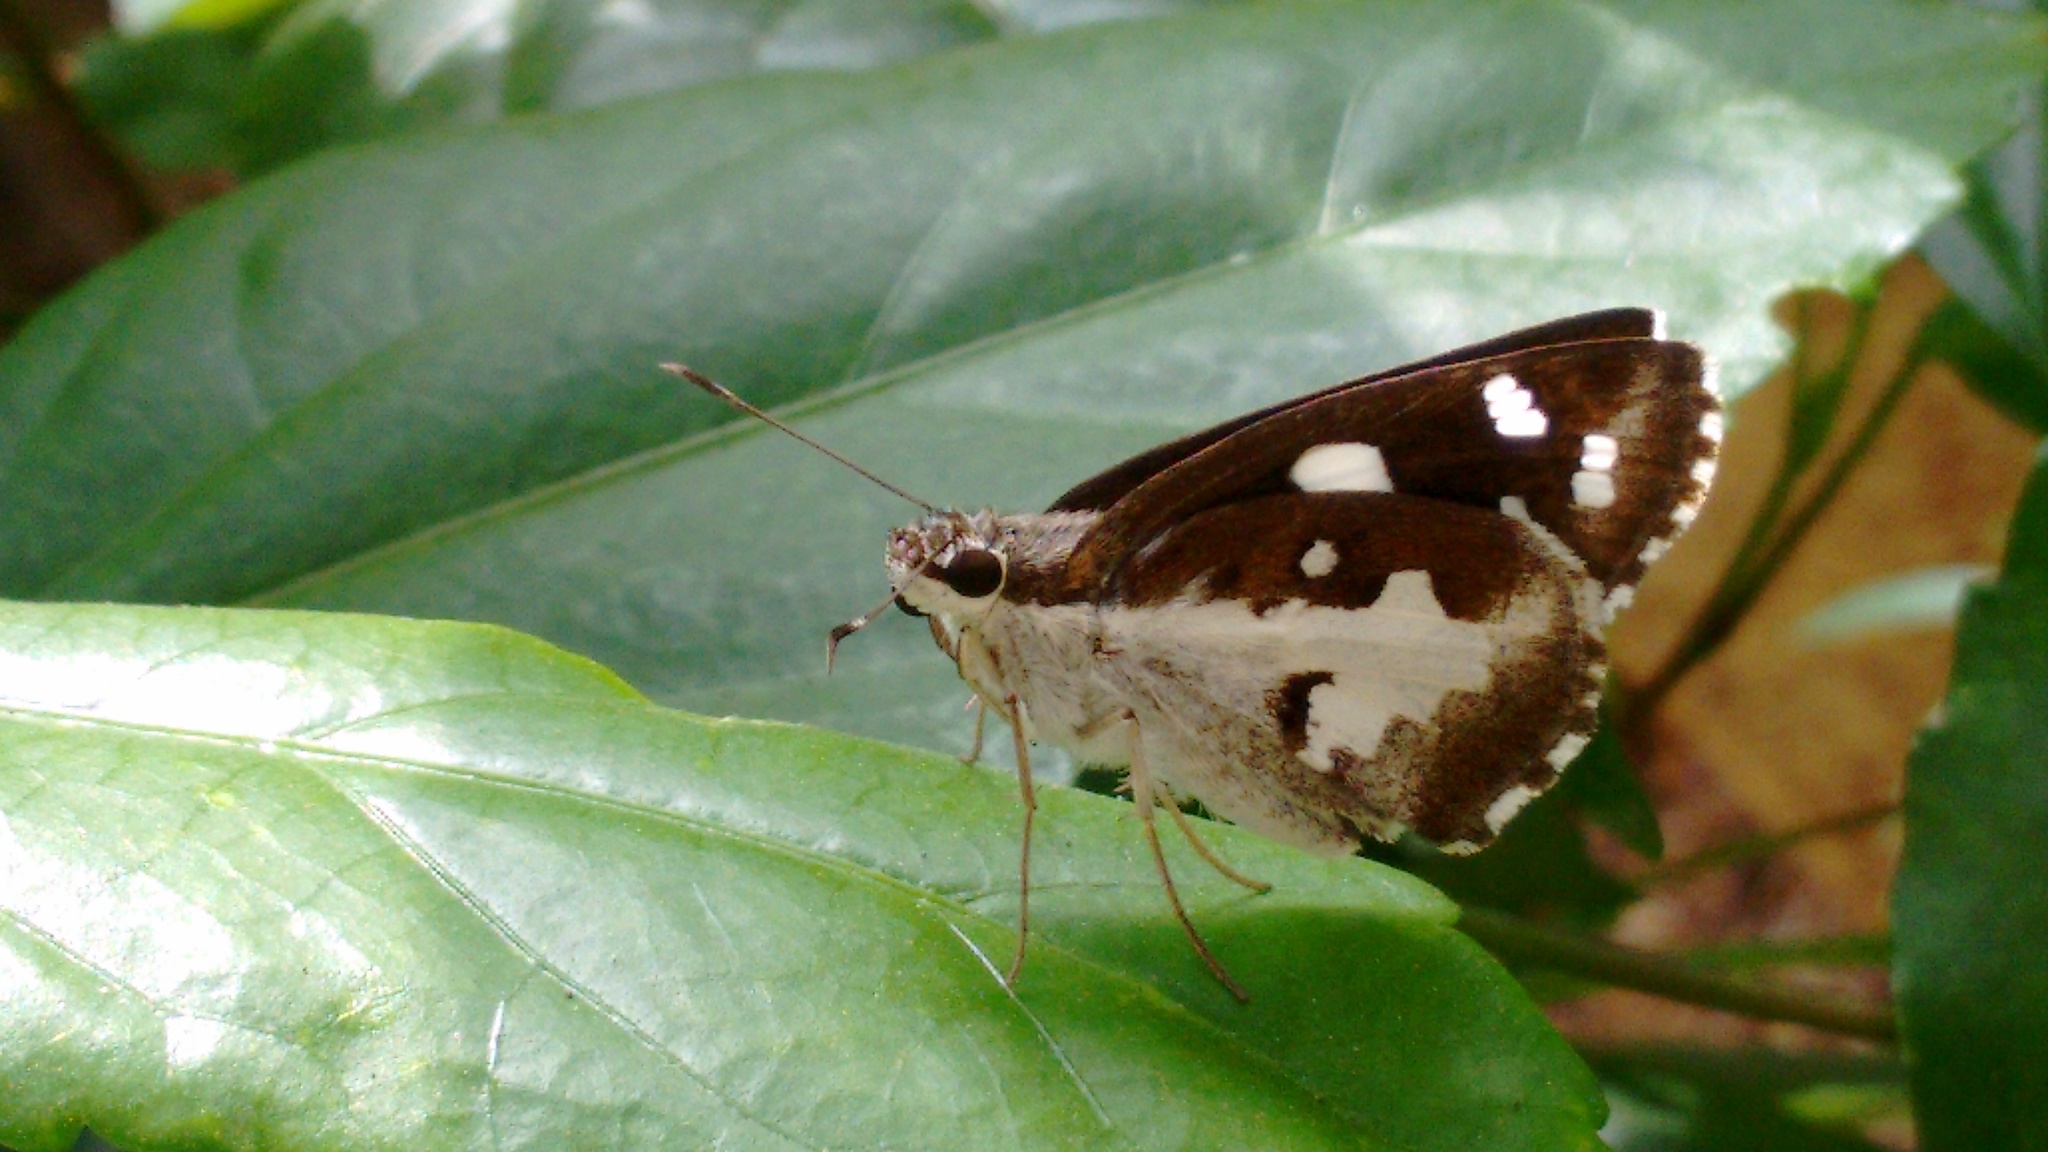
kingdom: Animalia
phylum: Arthropoda
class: Insecta
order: Lepidoptera
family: Hesperiidae
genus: Udaspes
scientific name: Udaspes folus
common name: Grass demon
